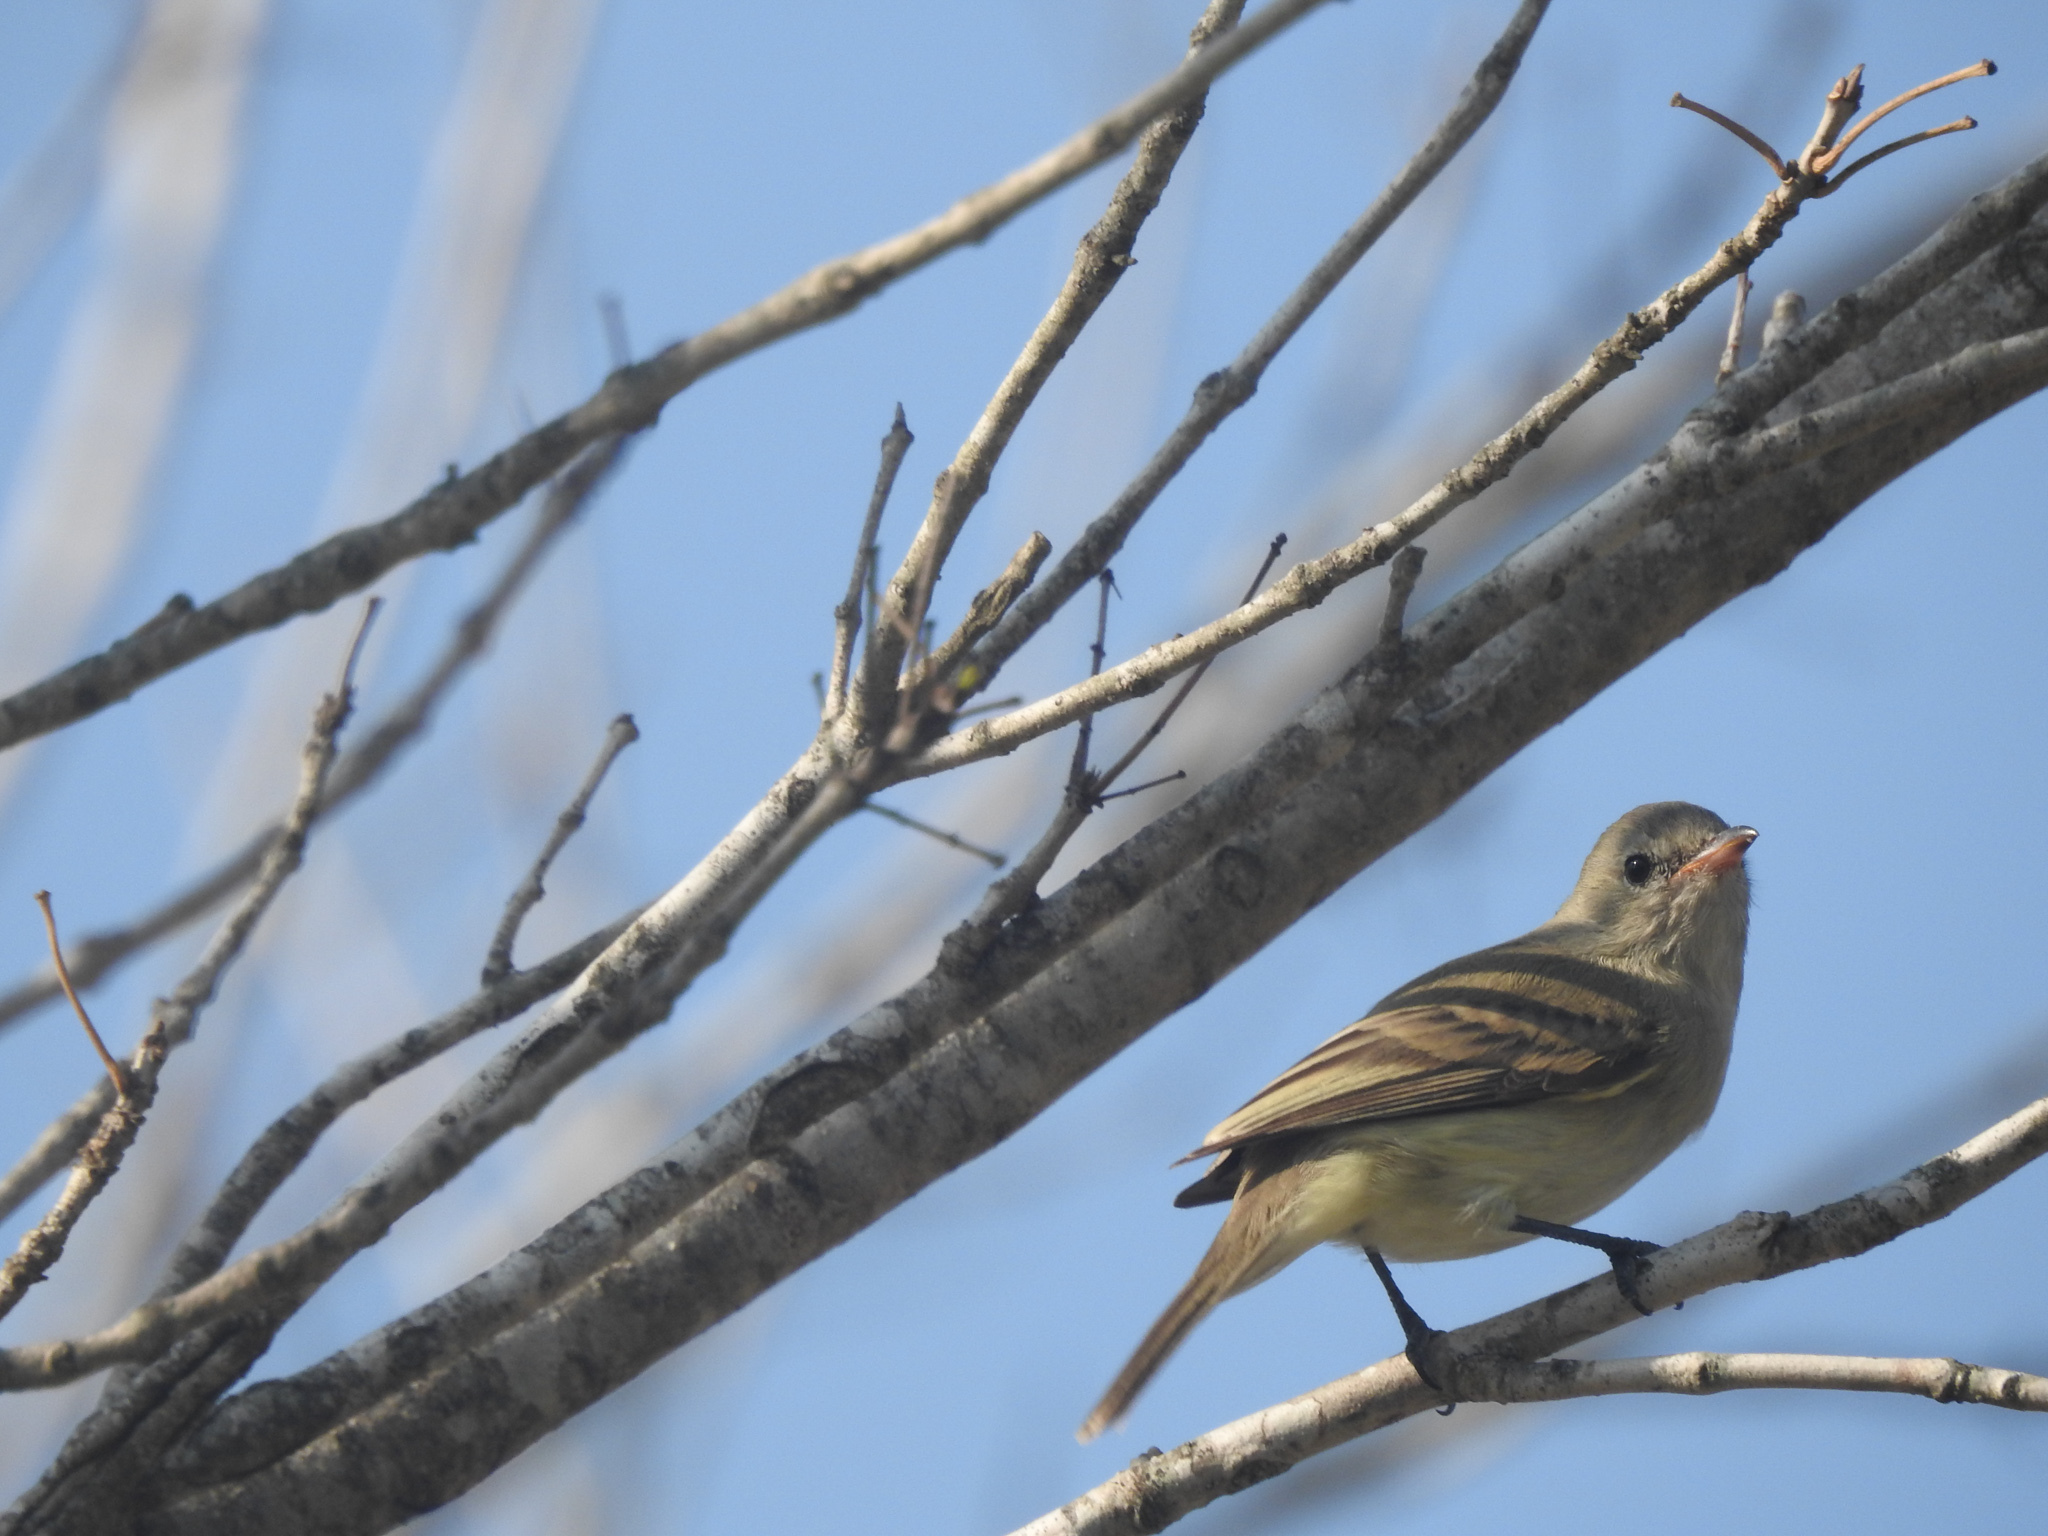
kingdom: Animalia
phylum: Chordata
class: Aves
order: Passeriformes
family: Tyrannidae
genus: Camptostoma
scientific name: Camptostoma imberbe
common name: Northern beardless-tyrannulet
